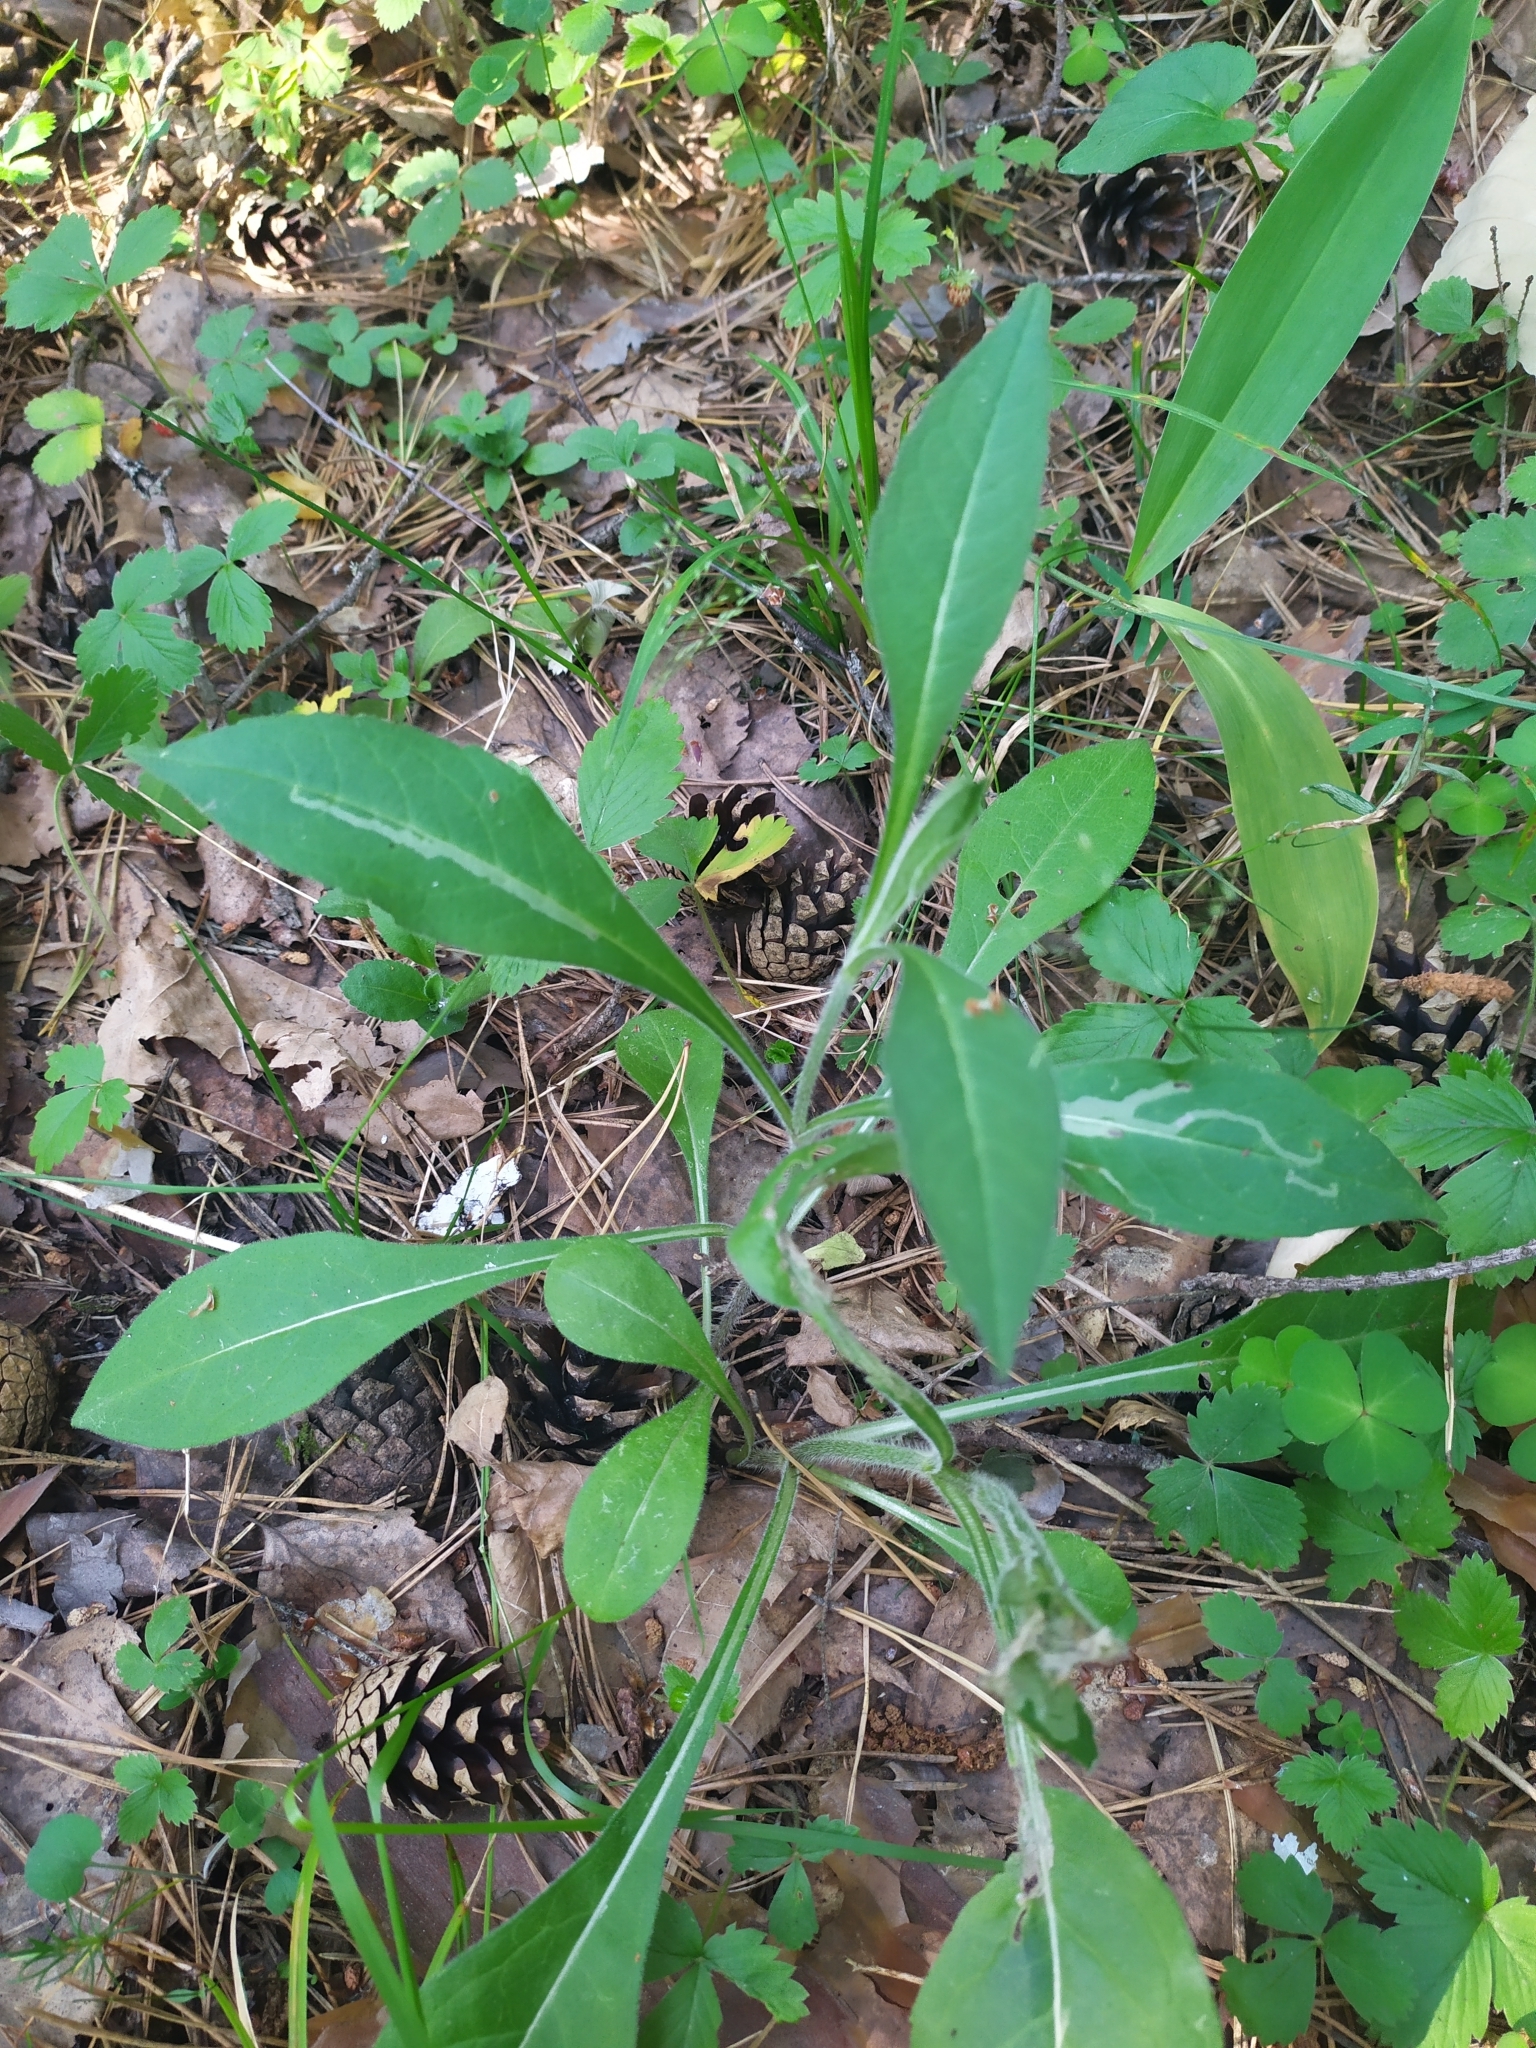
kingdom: Plantae
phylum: Tracheophyta
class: Magnoliopsida
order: Dipsacales
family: Caprifoliaceae
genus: Knautia
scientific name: Knautia arvensis
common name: Field scabiosa
